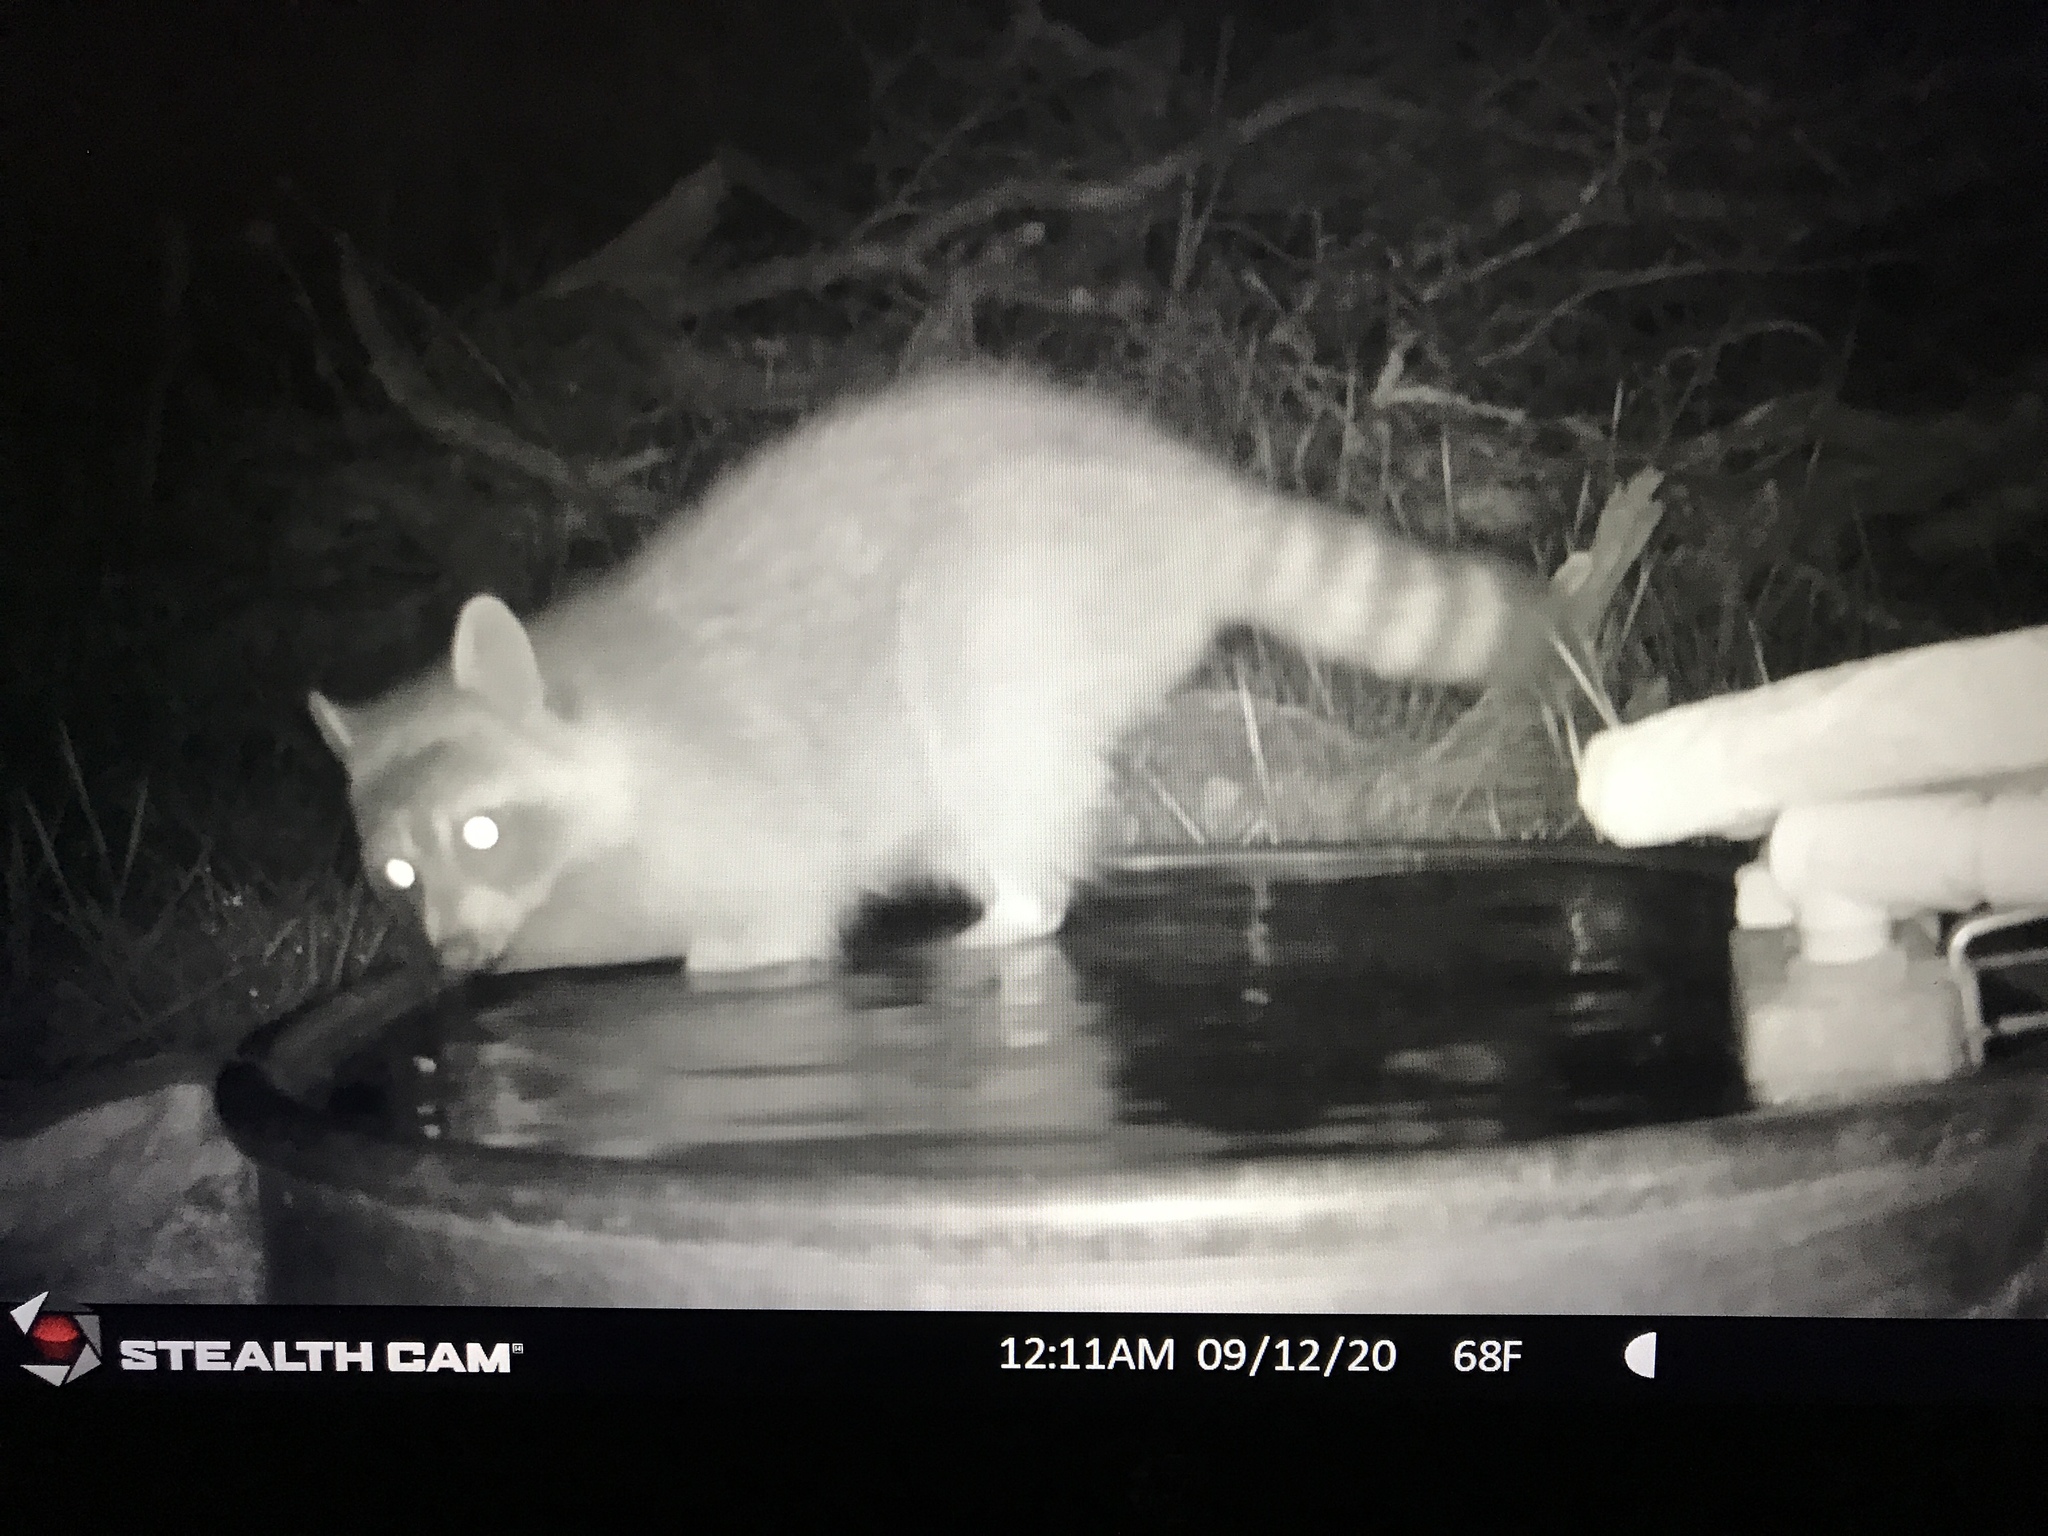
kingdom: Animalia
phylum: Chordata
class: Mammalia
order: Carnivora
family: Procyonidae
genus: Procyon
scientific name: Procyon lotor
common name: Raccoon
